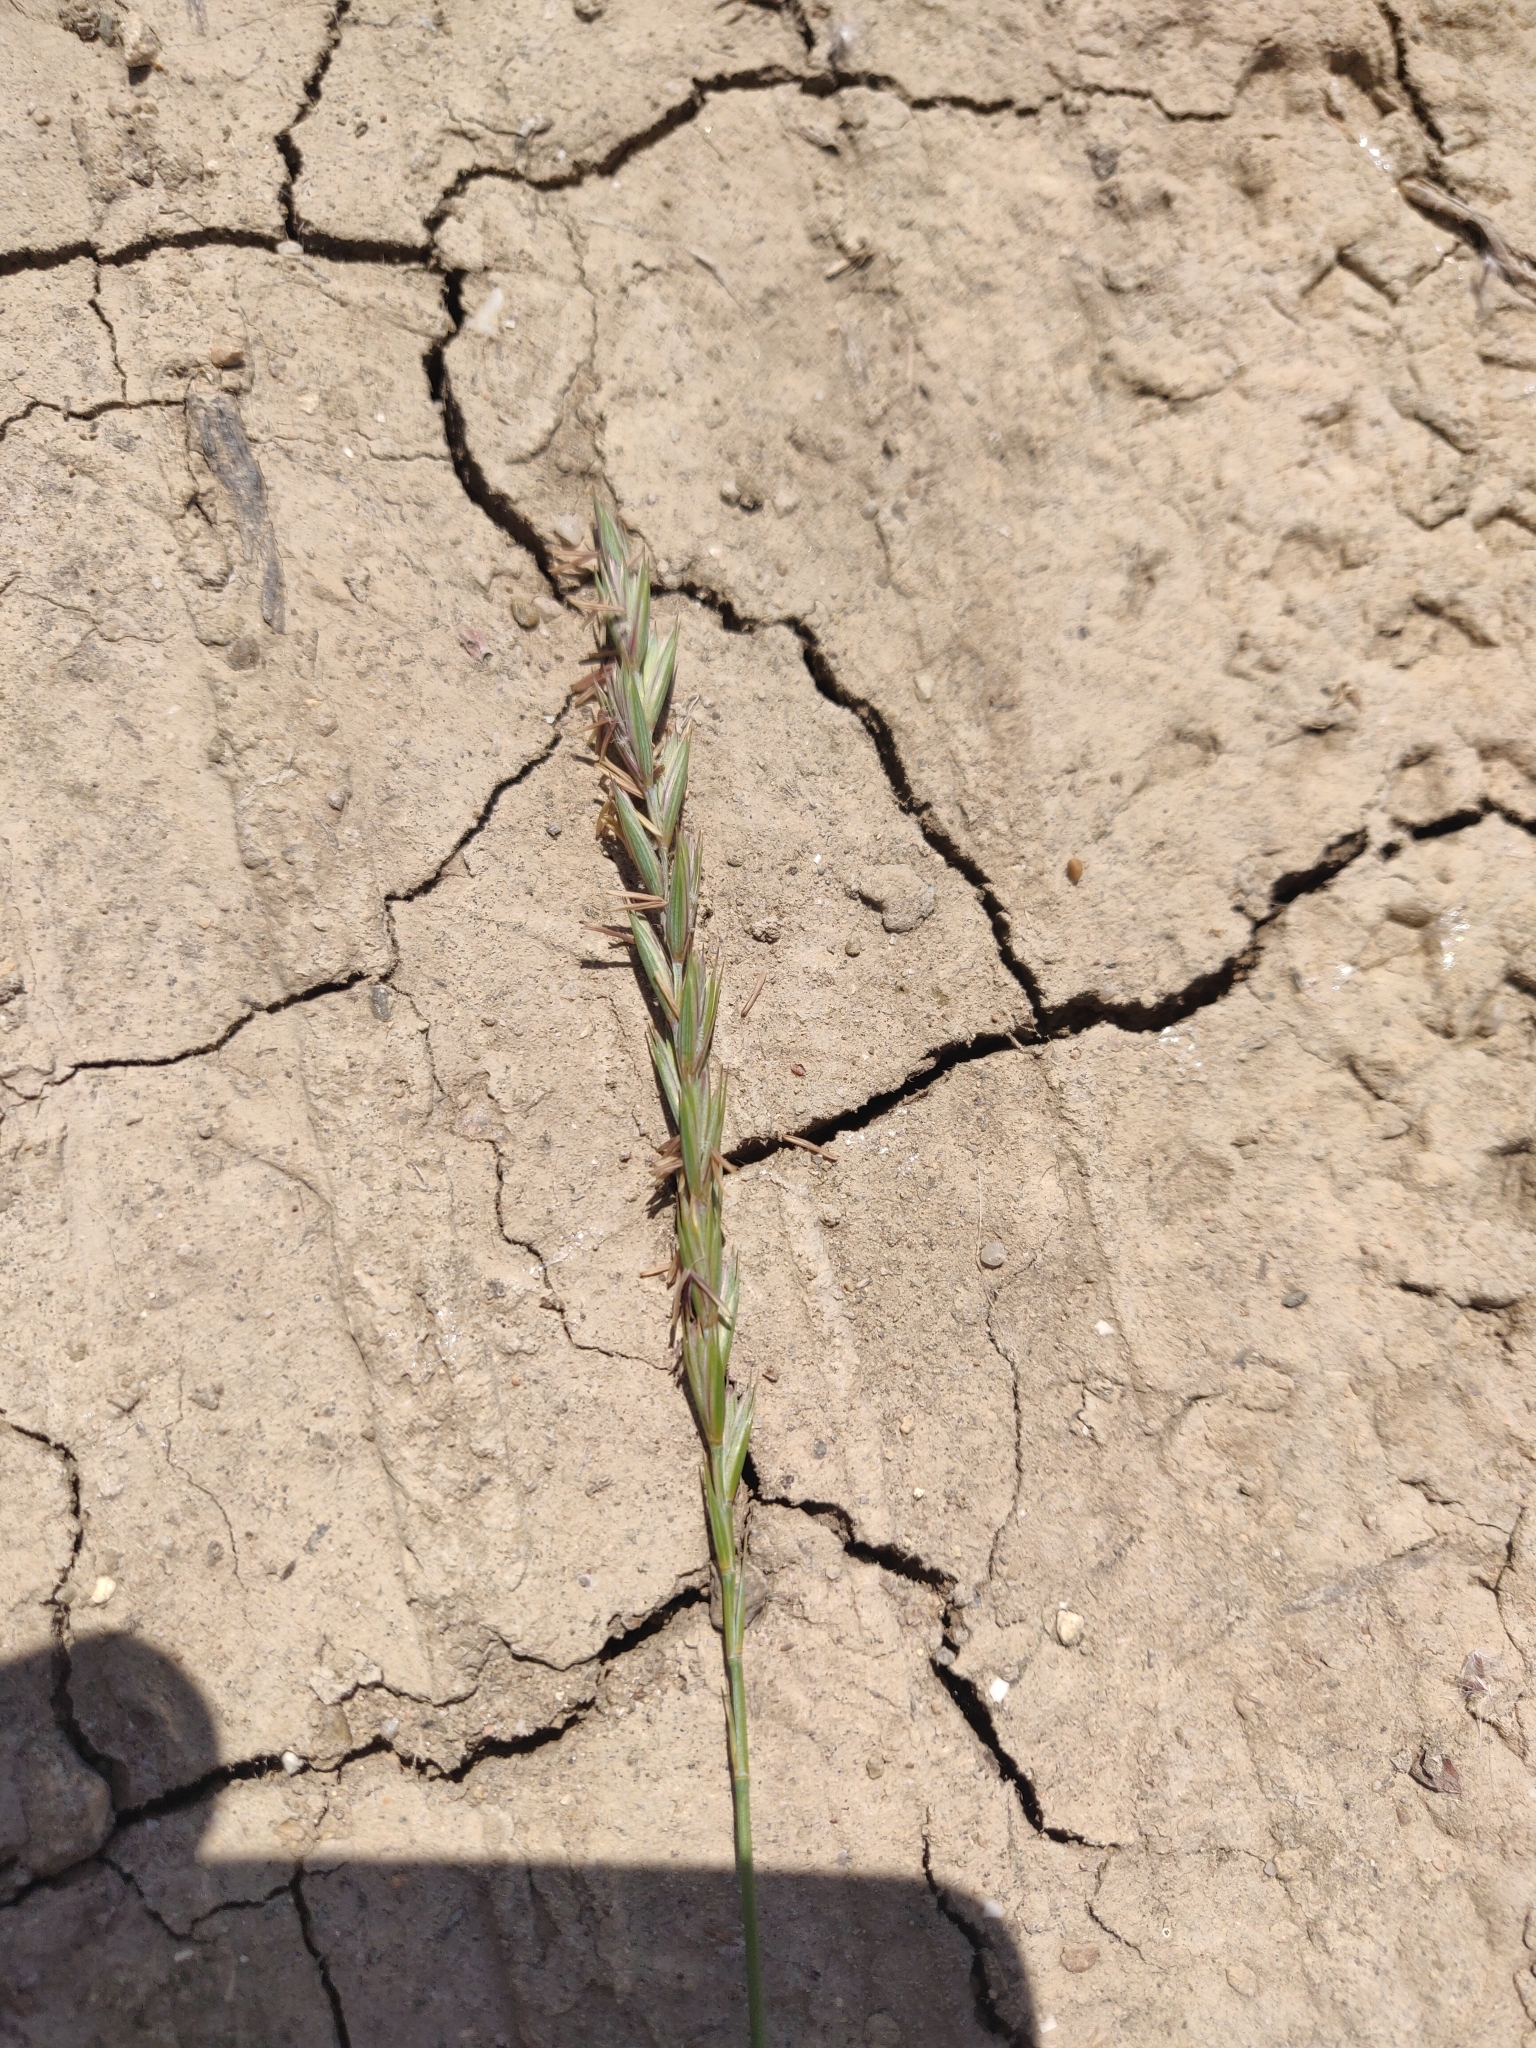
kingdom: Plantae
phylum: Tracheophyta
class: Liliopsida
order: Poales
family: Poaceae
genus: Elymus
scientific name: Elymus repens
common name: Quackgrass
